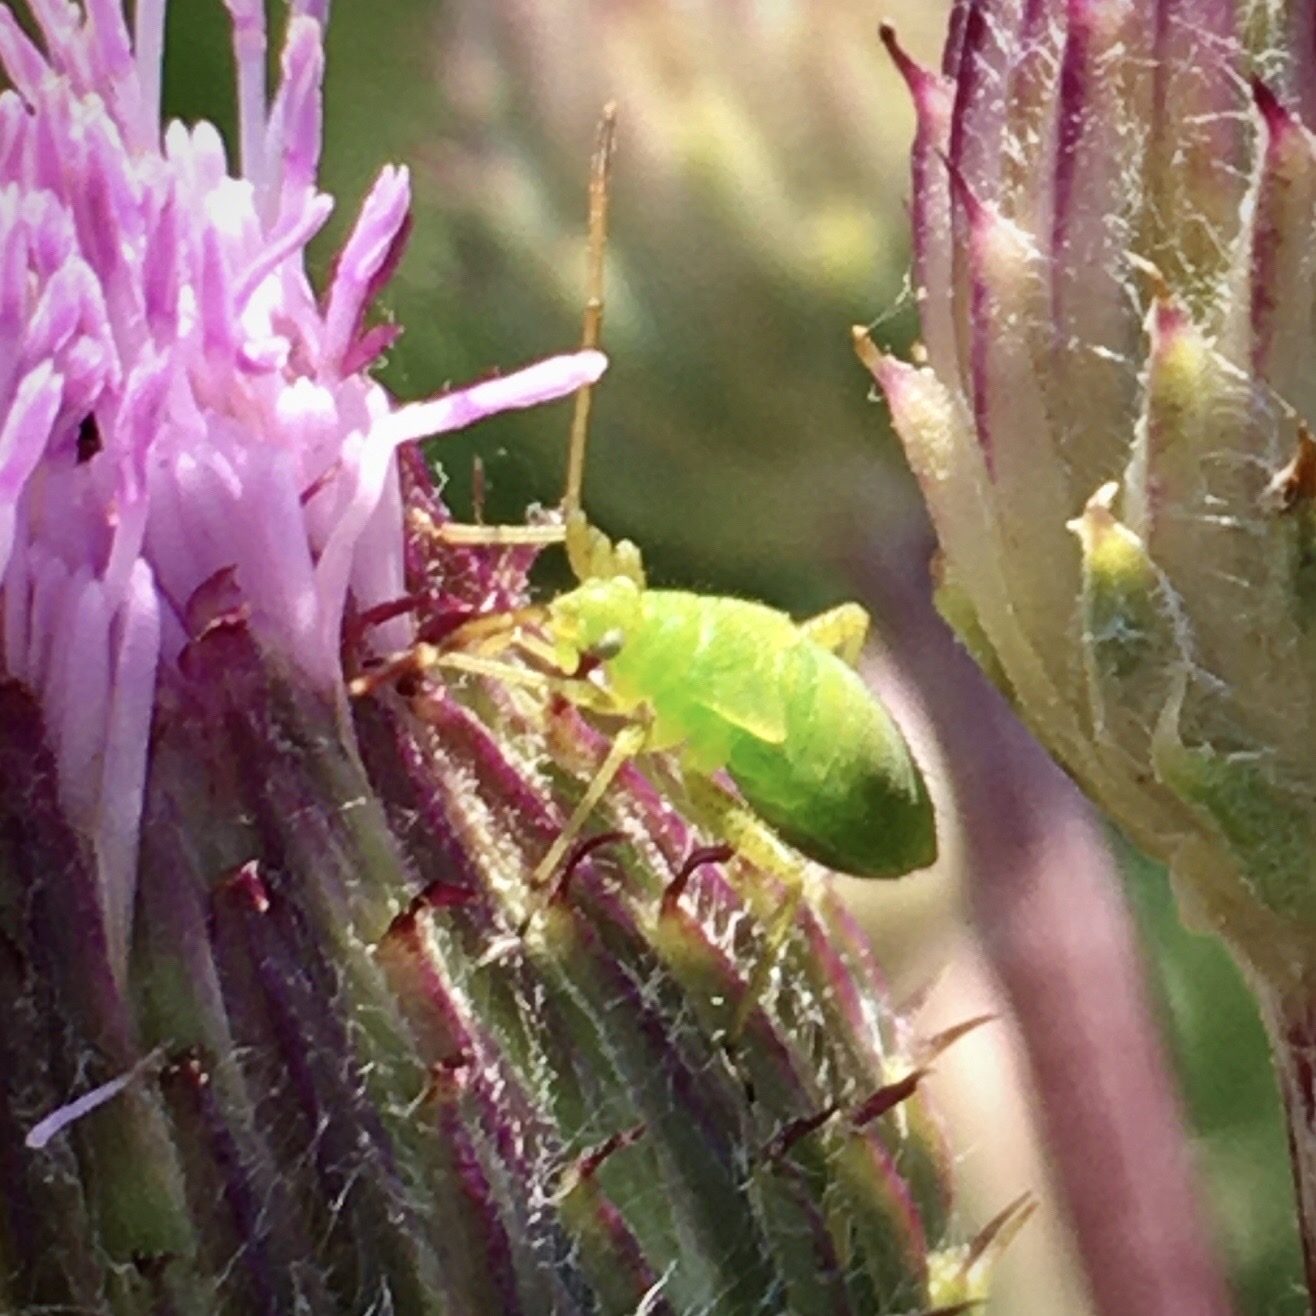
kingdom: Animalia
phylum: Arthropoda
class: Insecta
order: Hemiptera
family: Miridae
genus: Adelphocoris
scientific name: Adelphocoris
